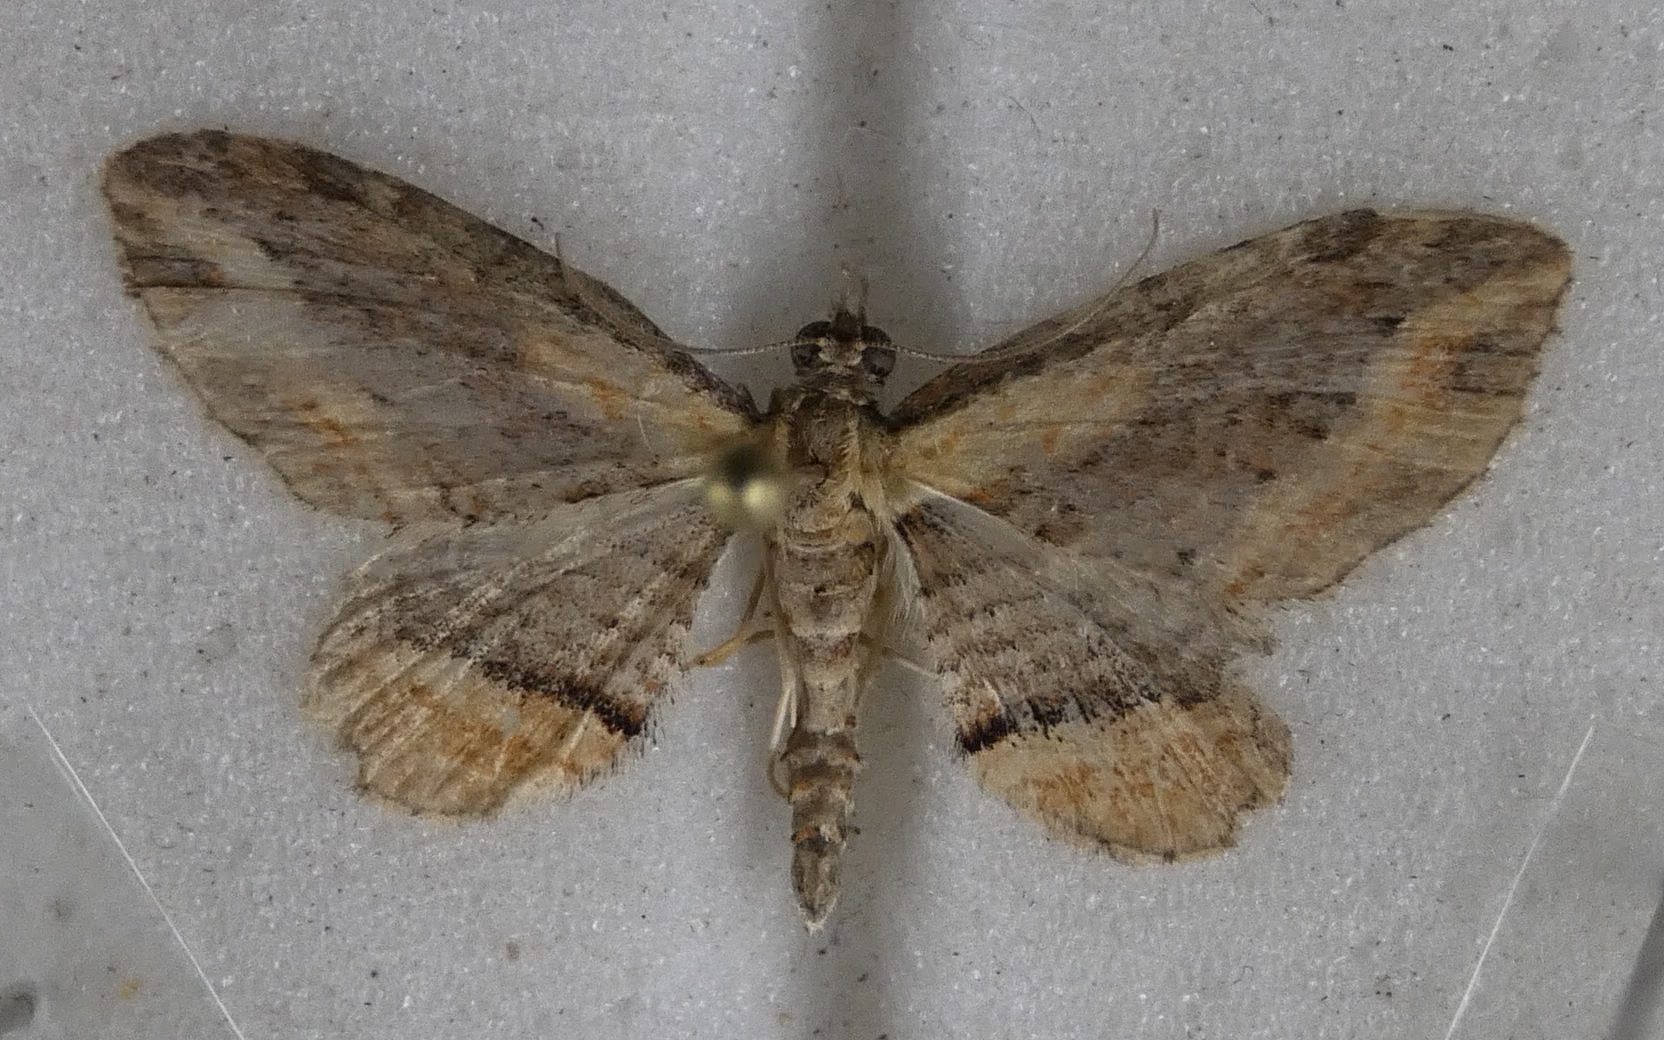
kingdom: Animalia
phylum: Arthropoda
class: Insecta
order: Lepidoptera
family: Geometridae
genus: Chloroclystis
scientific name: Chloroclystis filata
